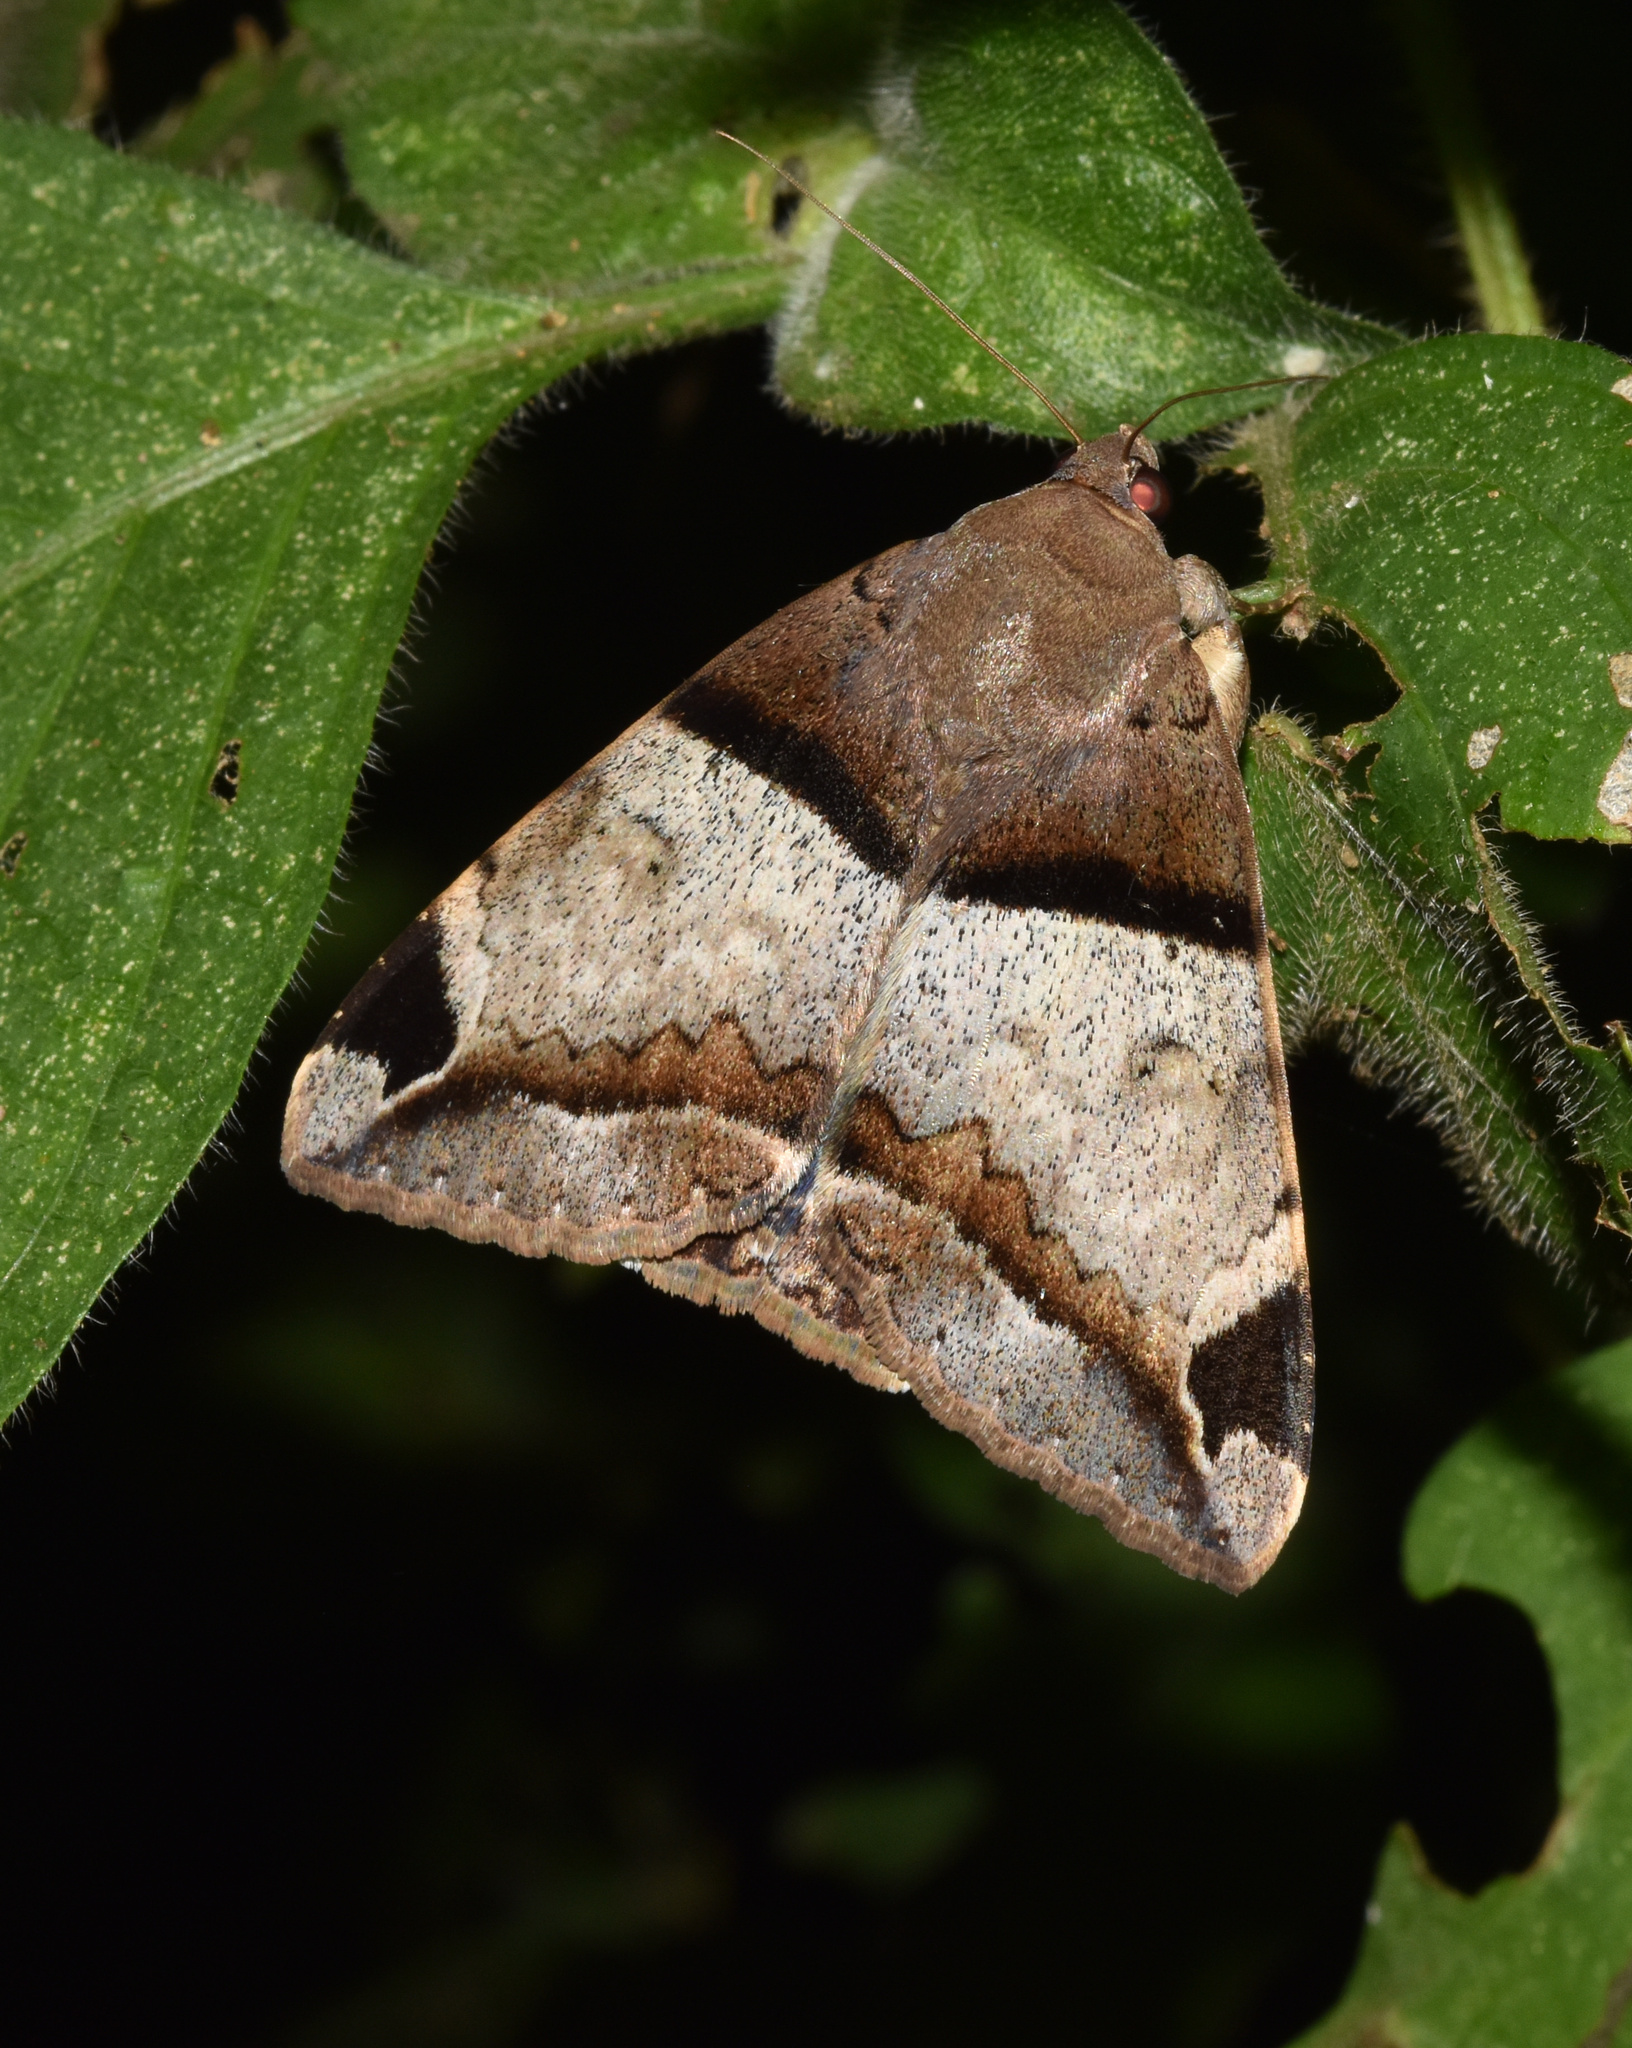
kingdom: Animalia
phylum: Arthropoda
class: Insecta
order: Lepidoptera
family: Erebidae
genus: Achaea
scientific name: Achaea lienardi
